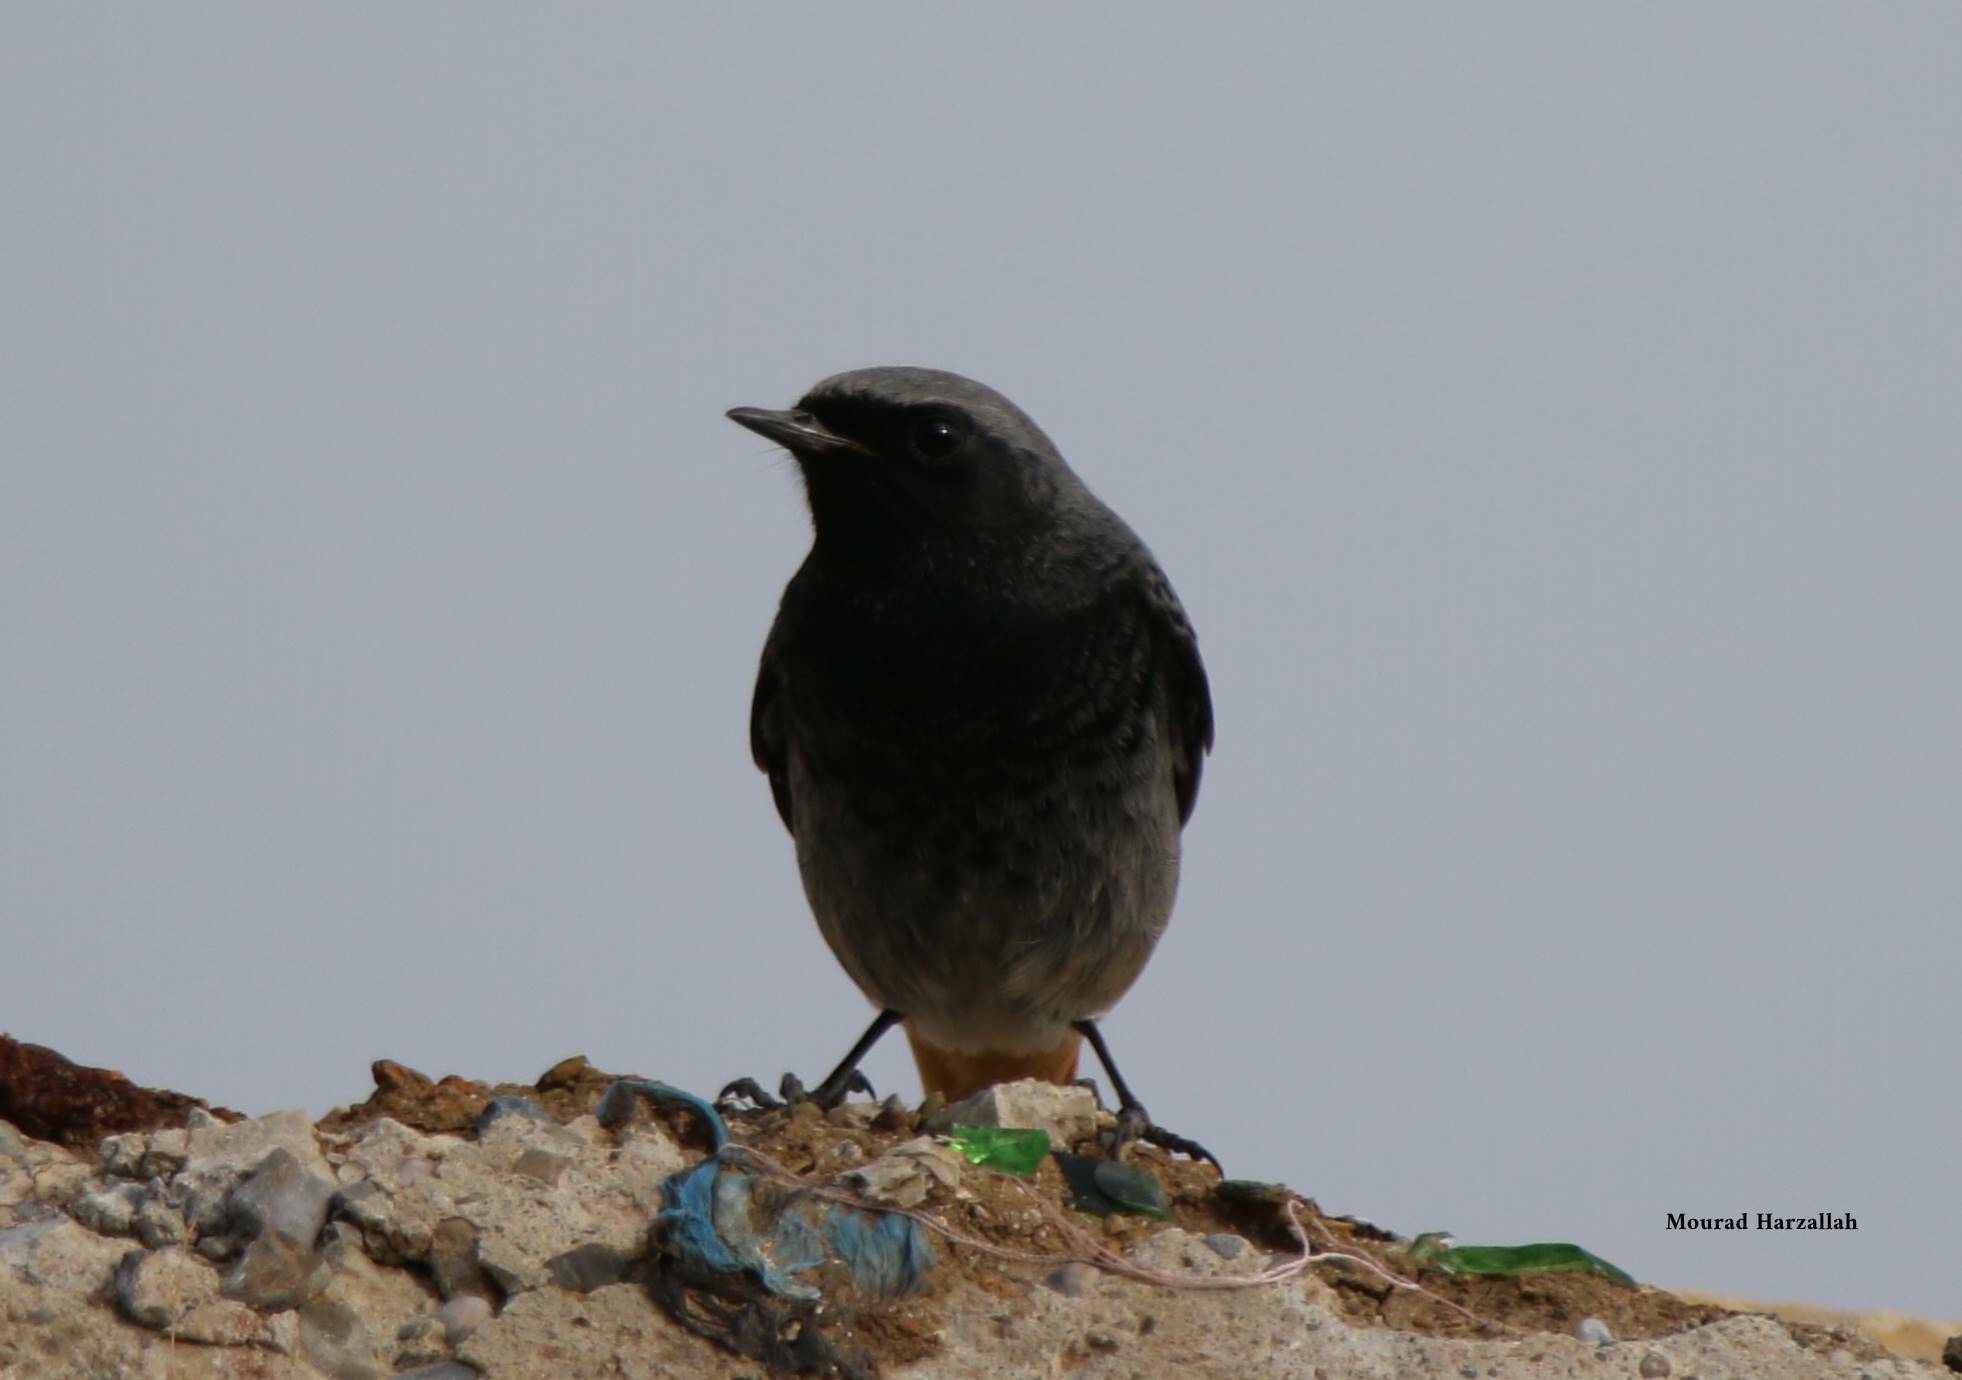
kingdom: Animalia
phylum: Chordata
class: Aves
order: Passeriformes
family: Muscicapidae
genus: Phoenicurus
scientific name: Phoenicurus ochruros
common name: Black redstart
